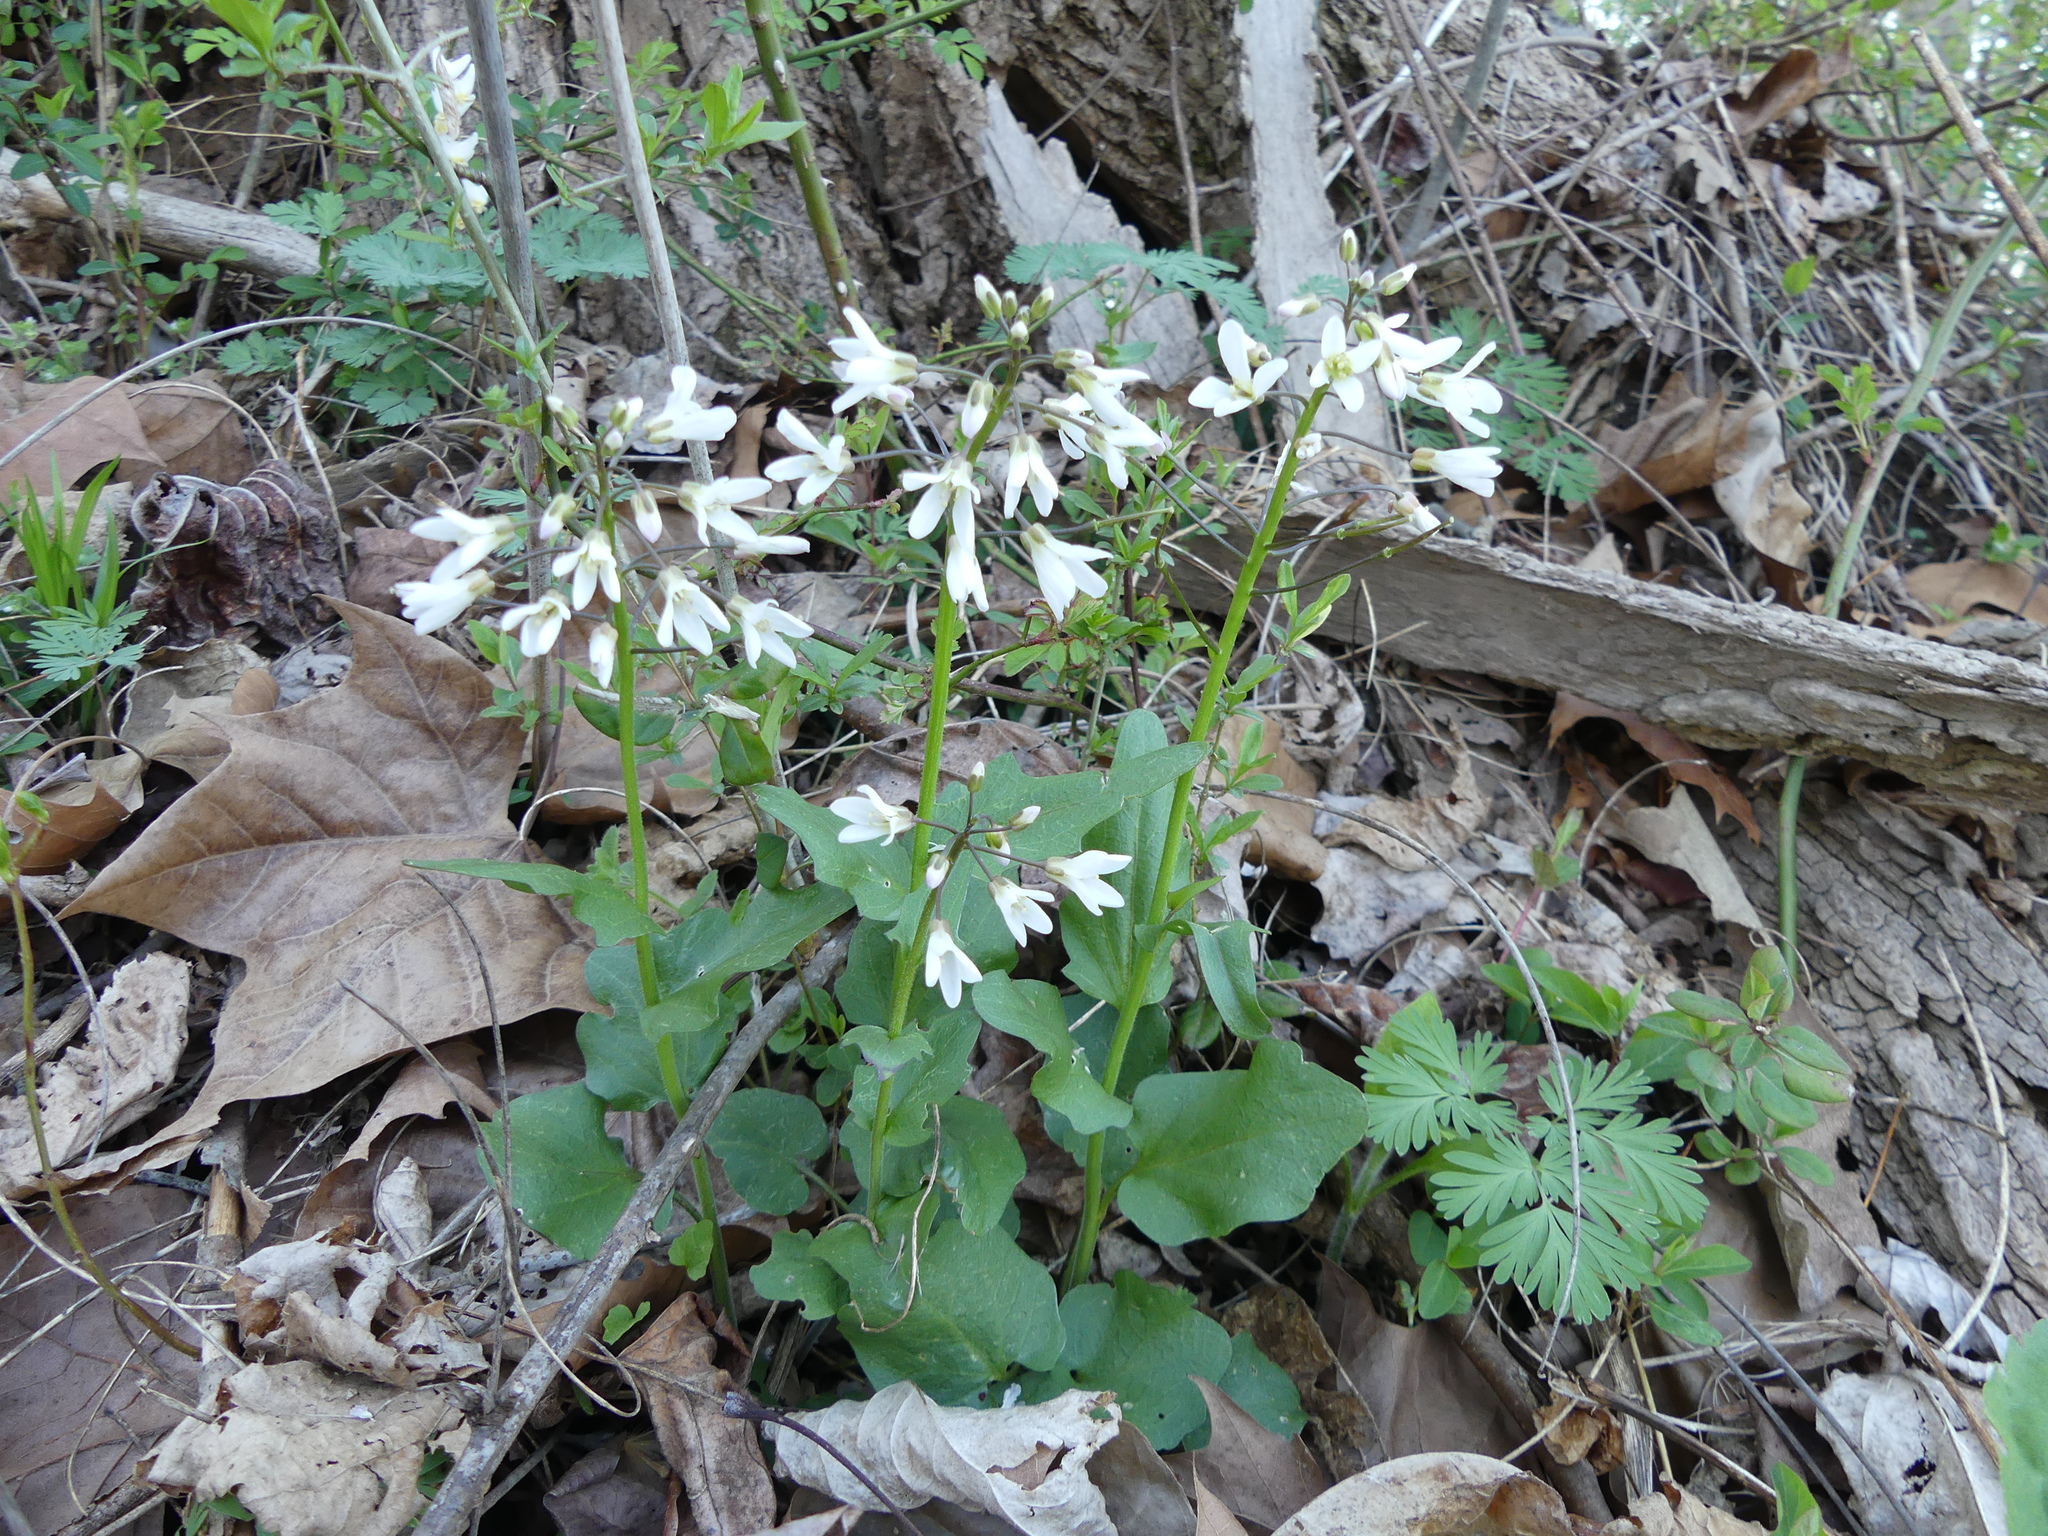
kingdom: Plantae
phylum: Tracheophyta
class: Magnoliopsida
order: Brassicales
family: Brassicaceae
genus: Cardamine
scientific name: Cardamine bulbosa
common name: Spring cress
